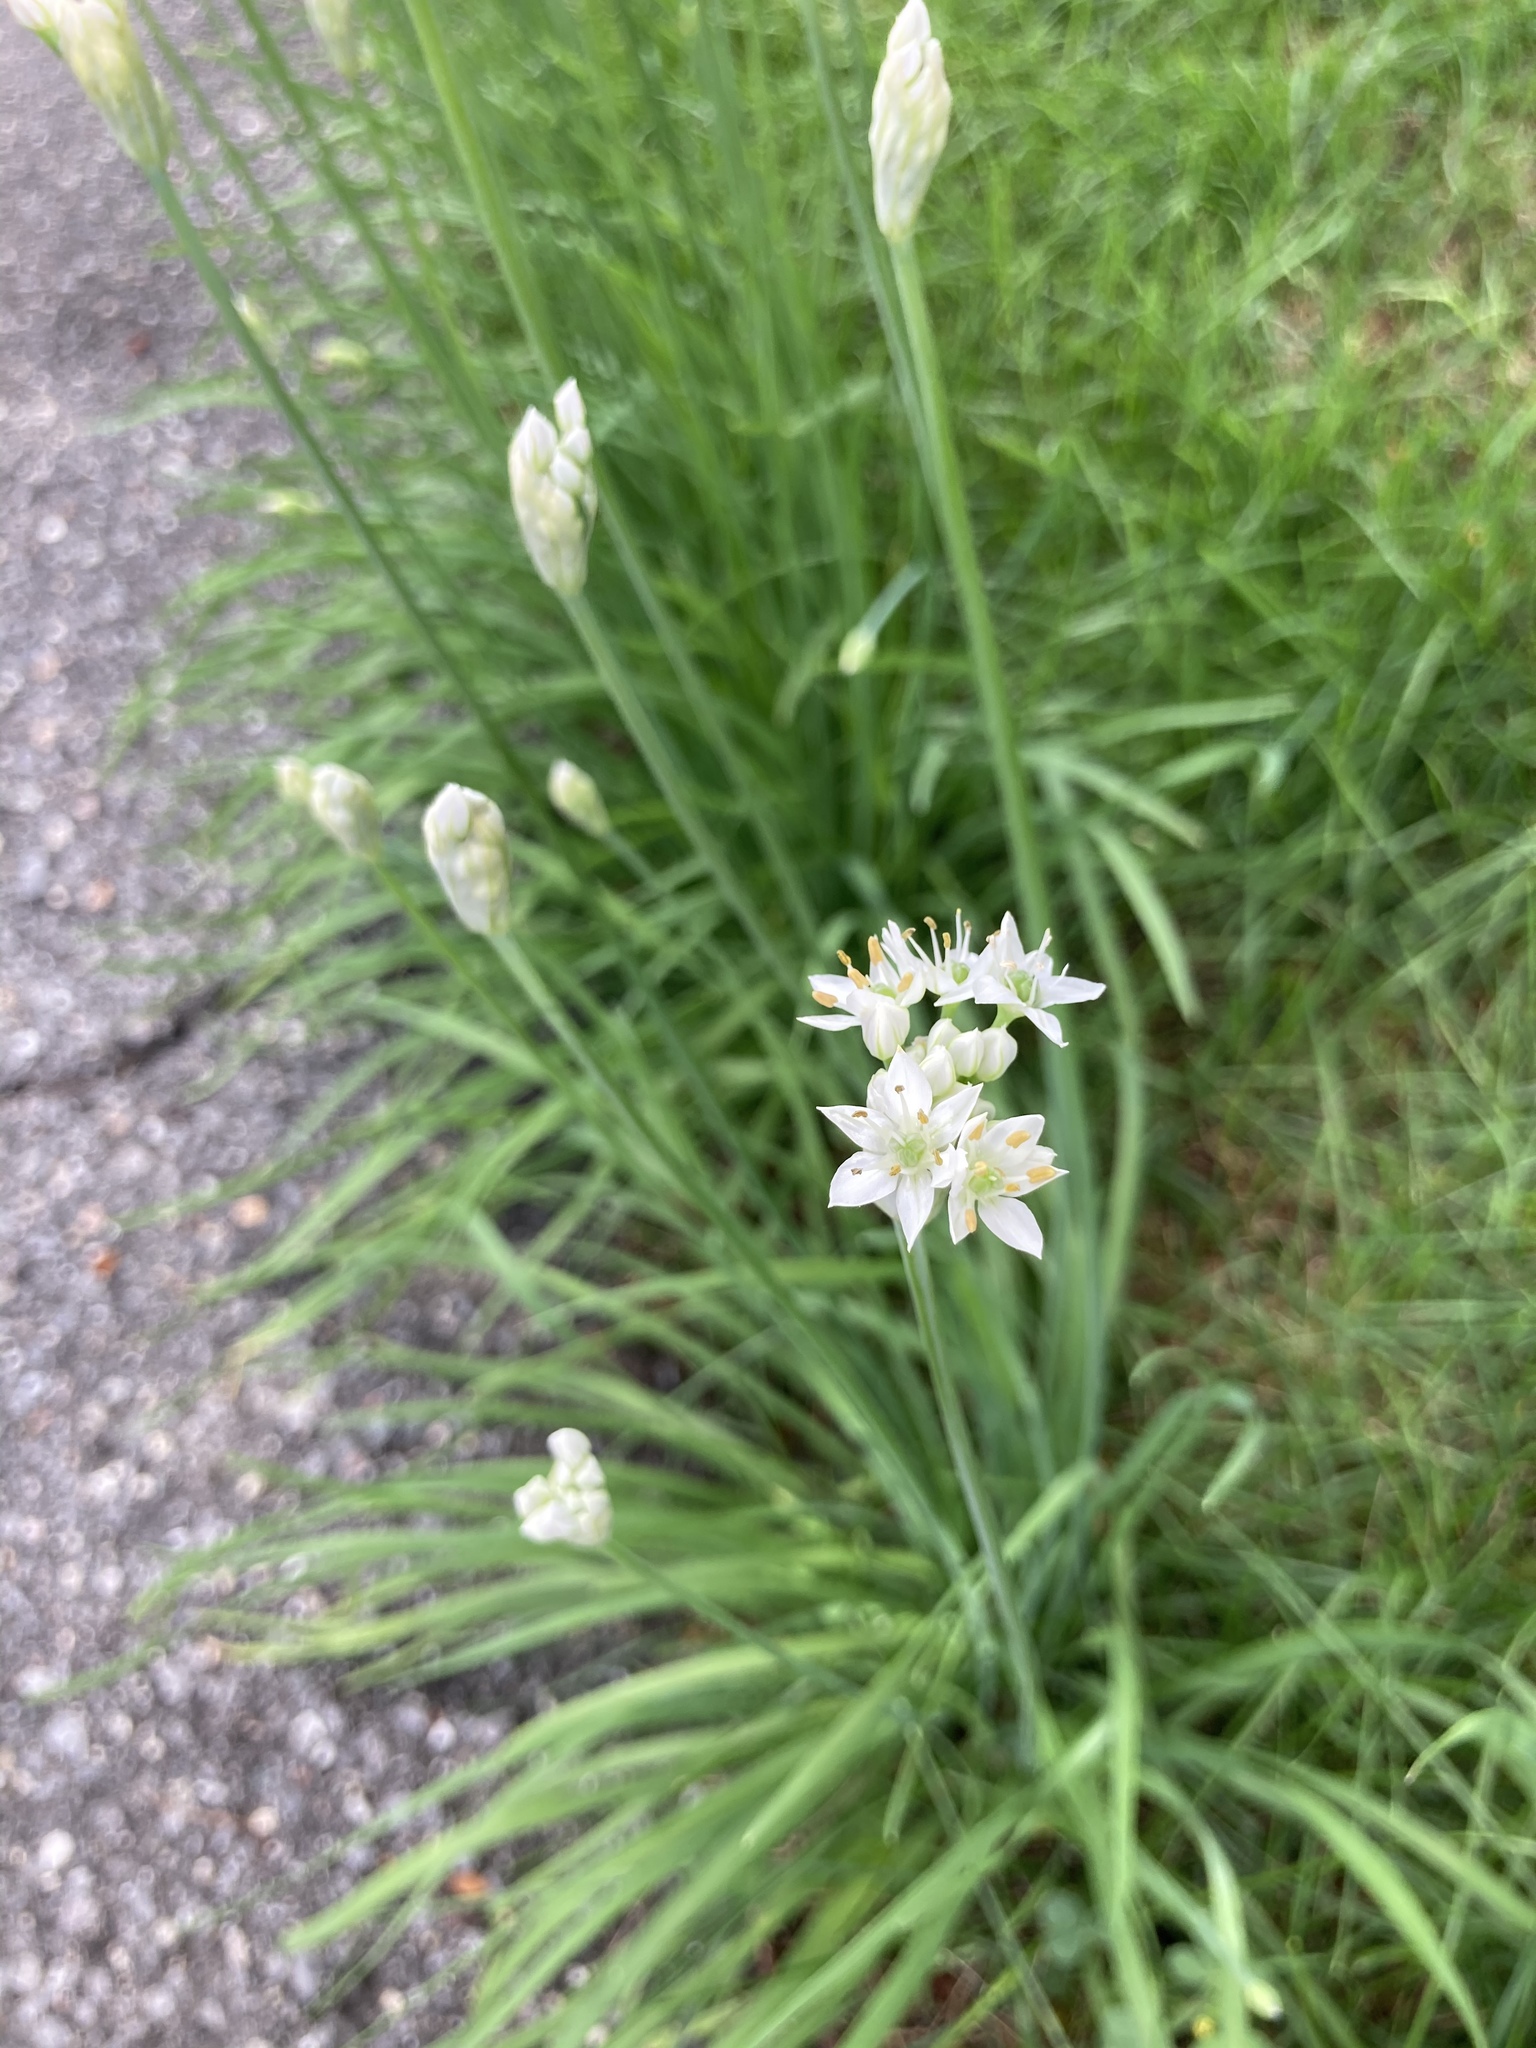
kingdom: Plantae
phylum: Tracheophyta
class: Liliopsida
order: Asparagales
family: Amaryllidaceae
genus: Allium
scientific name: Allium tuberosum
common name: Chinese chives
